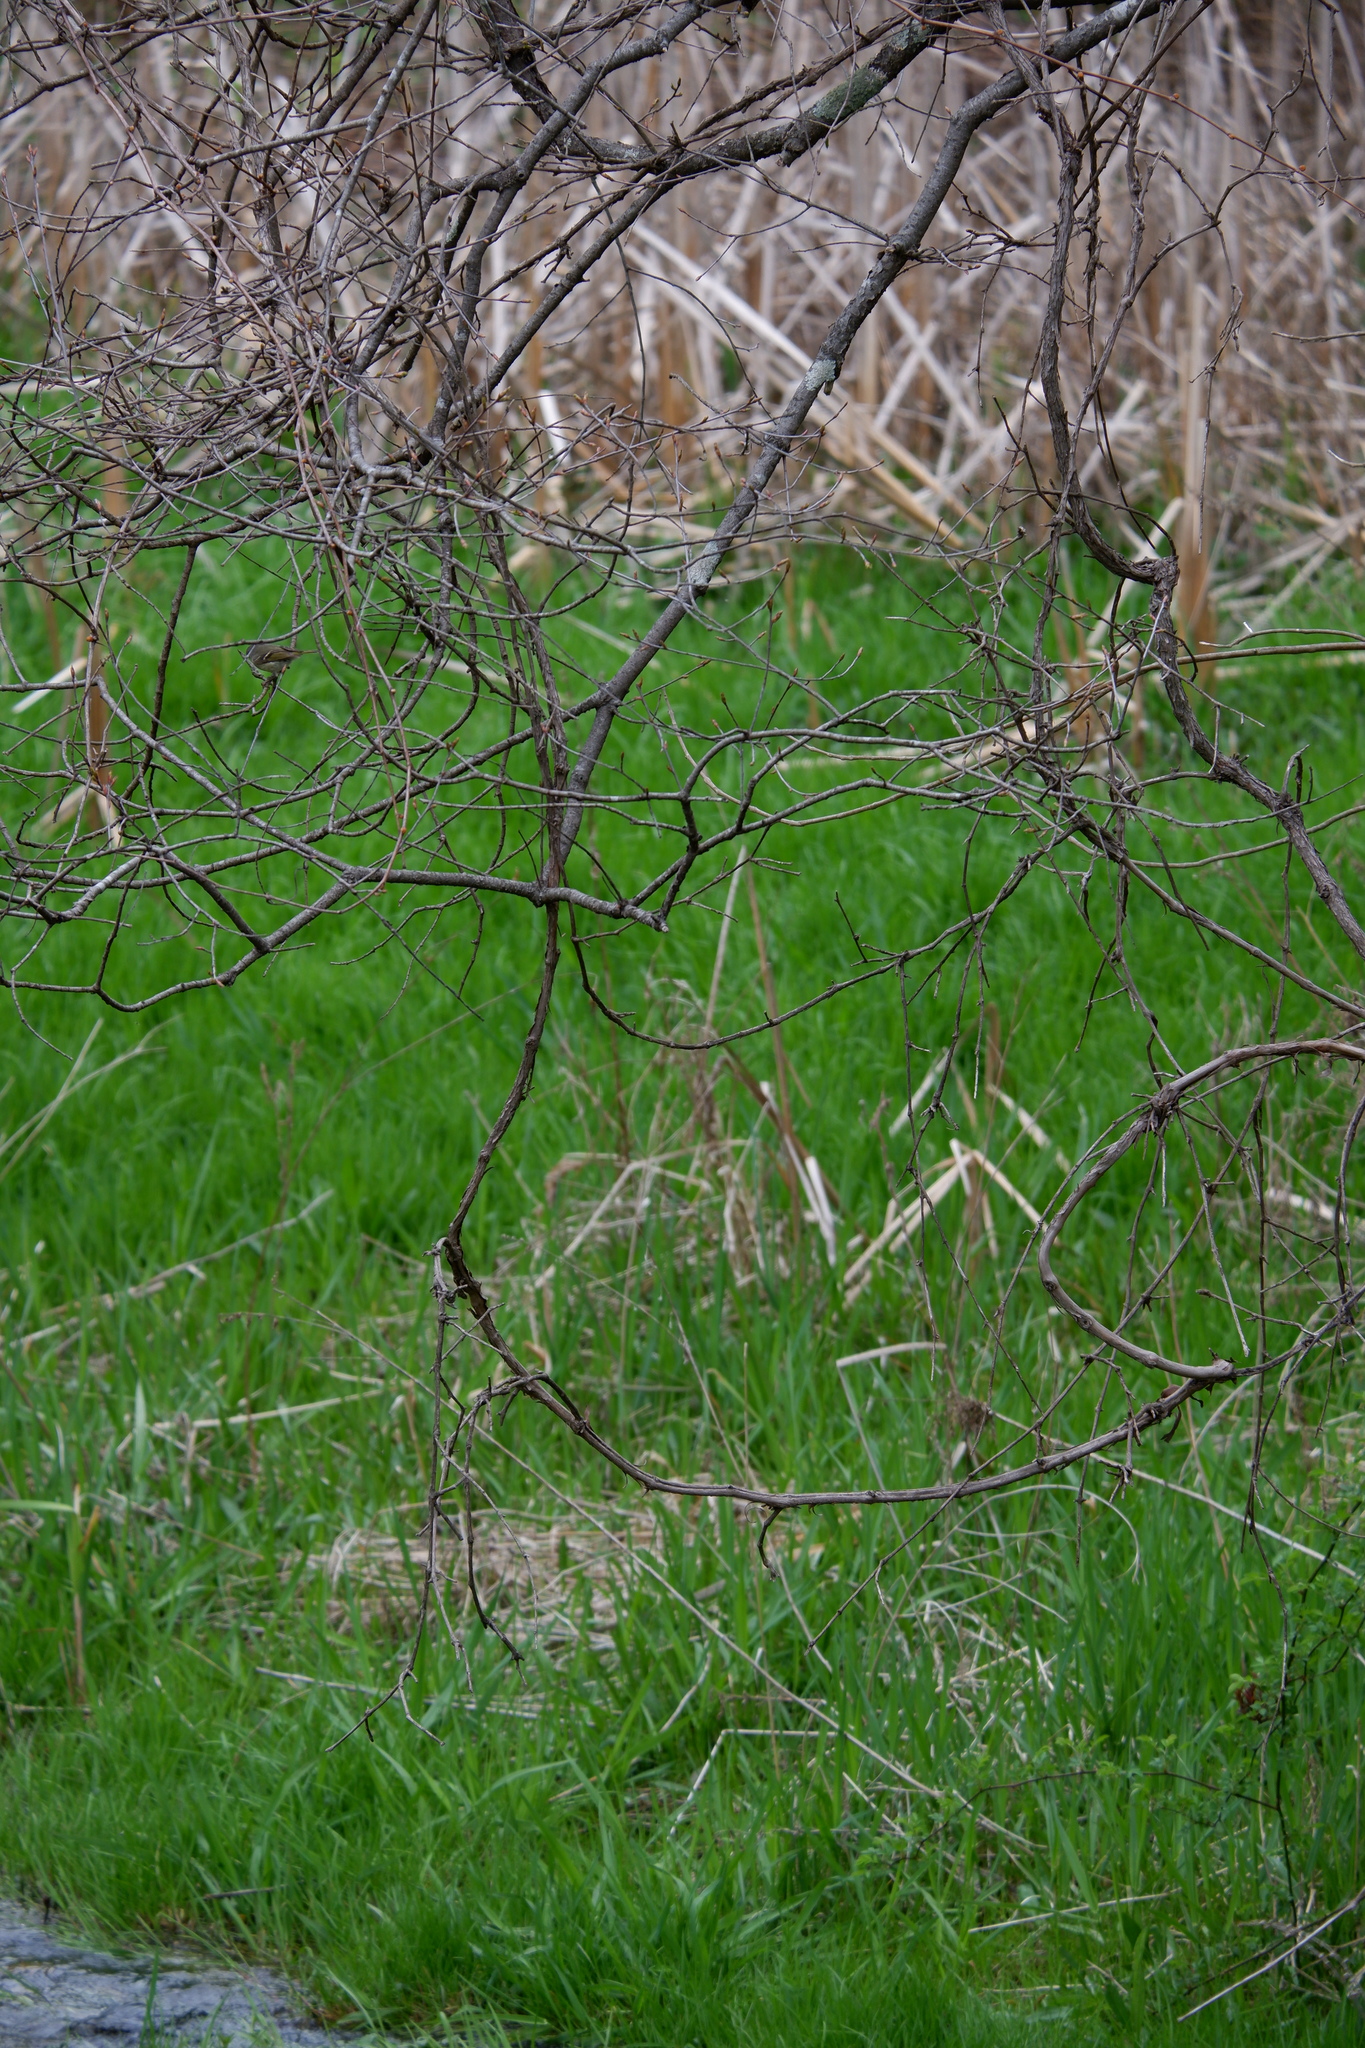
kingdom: Animalia
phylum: Chordata
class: Aves
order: Passeriformes
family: Regulidae
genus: Regulus
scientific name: Regulus calendula
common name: Ruby-crowned kinglet
